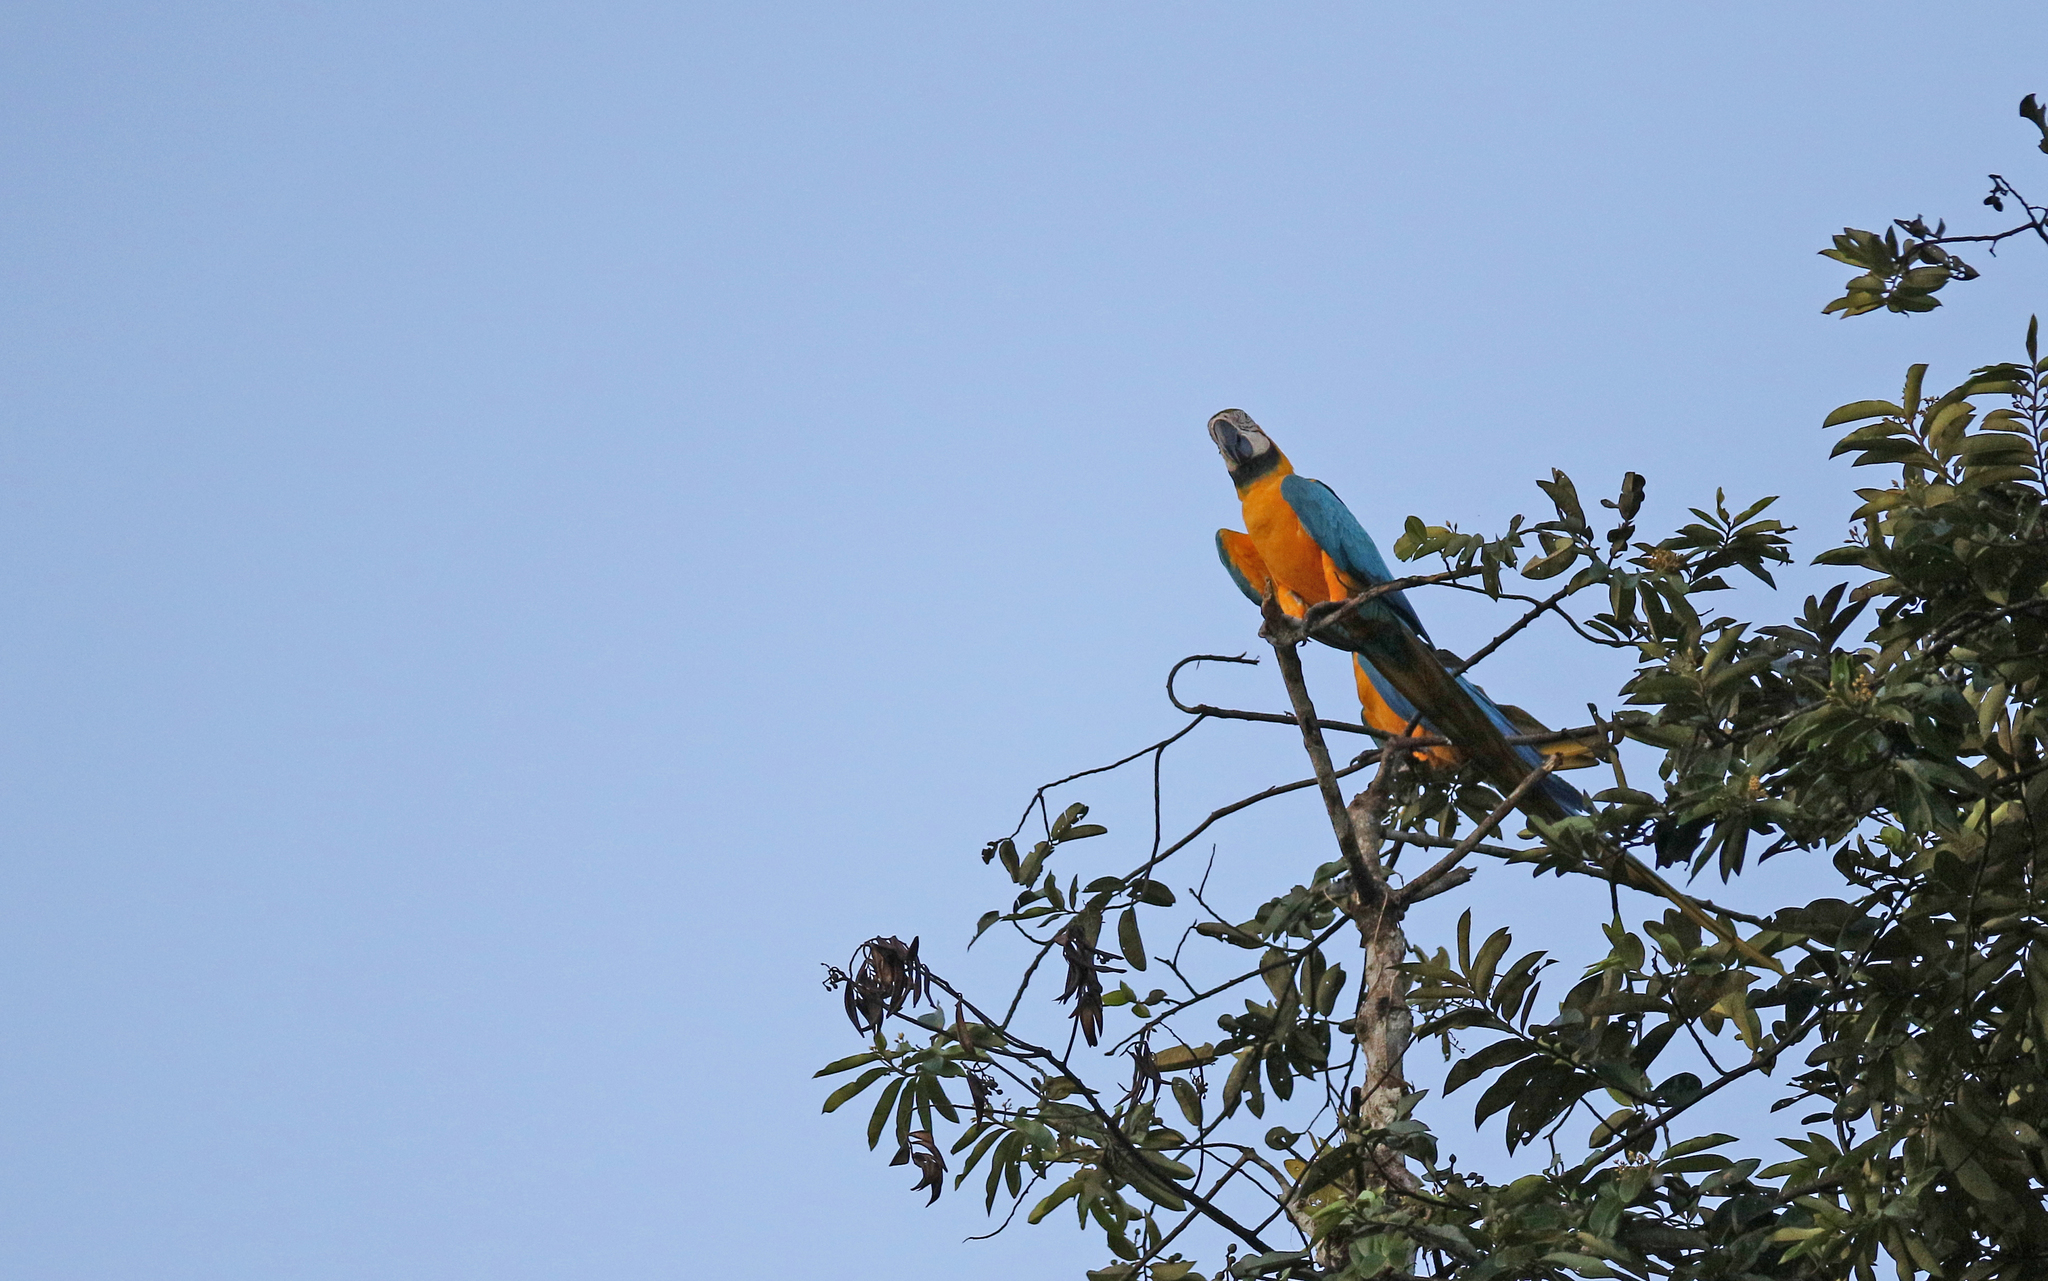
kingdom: Animalia
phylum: Chordata
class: Aves
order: Psittaciformes
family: Psittacidae
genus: Ara
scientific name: Ara ararauna
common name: Blue-and-yellow macaw
